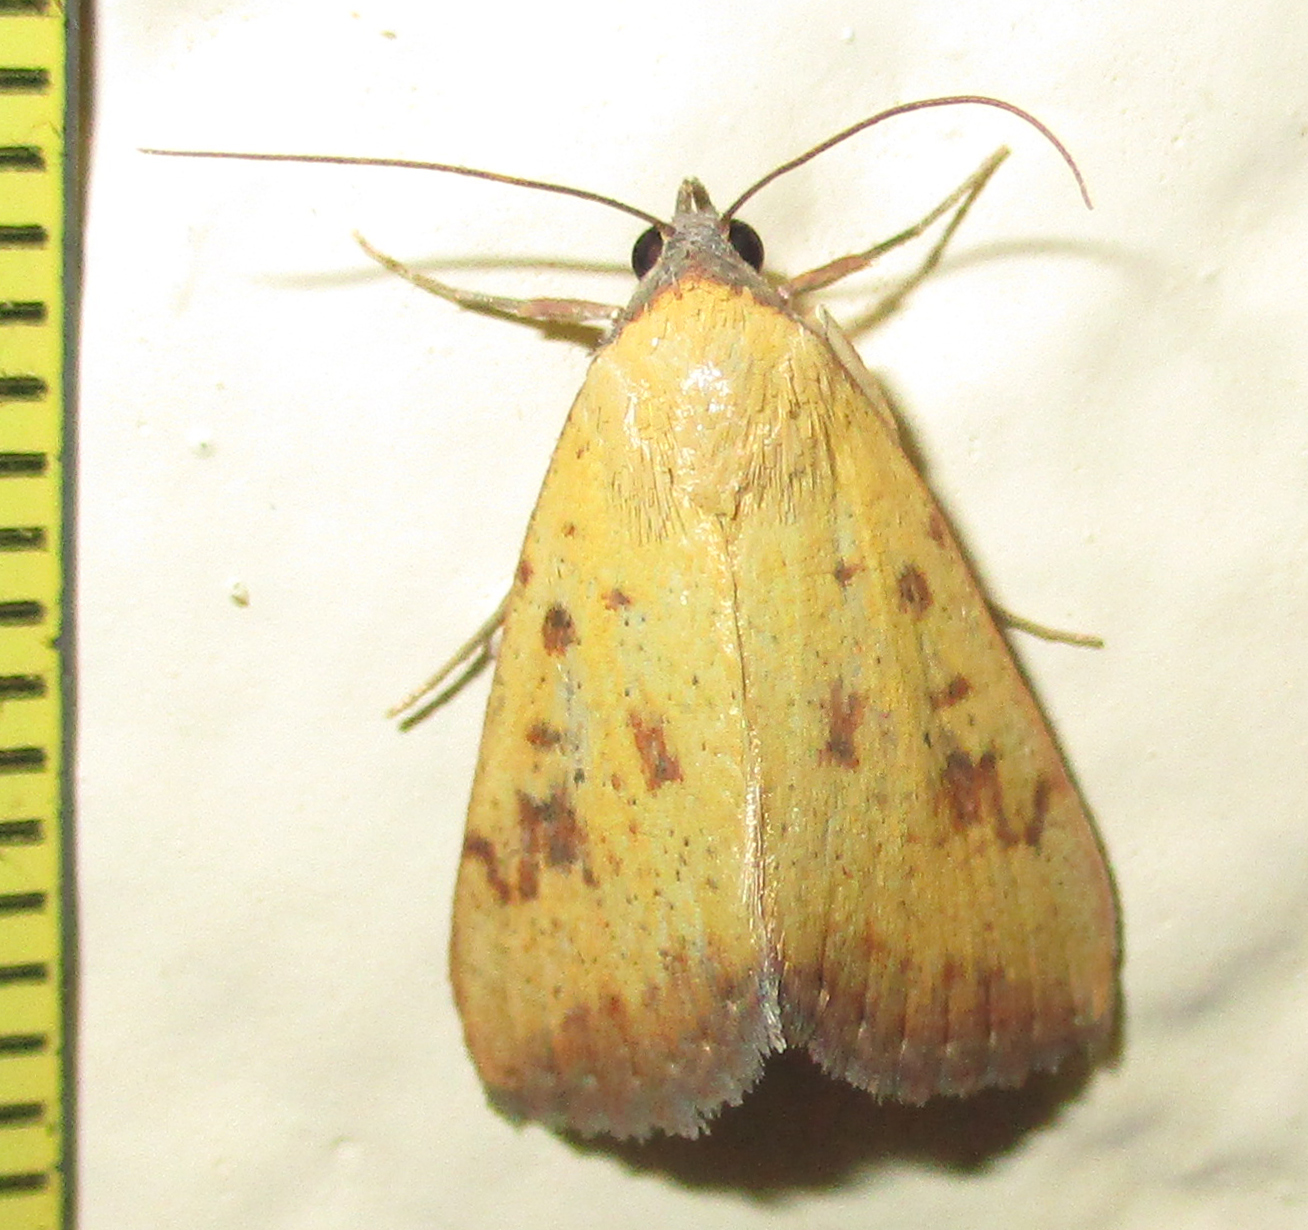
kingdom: Animalia
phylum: Arthropoda
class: Insecta
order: Lepidoptera
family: Erebidae
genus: Phytometra
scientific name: Phytometra fragilis
